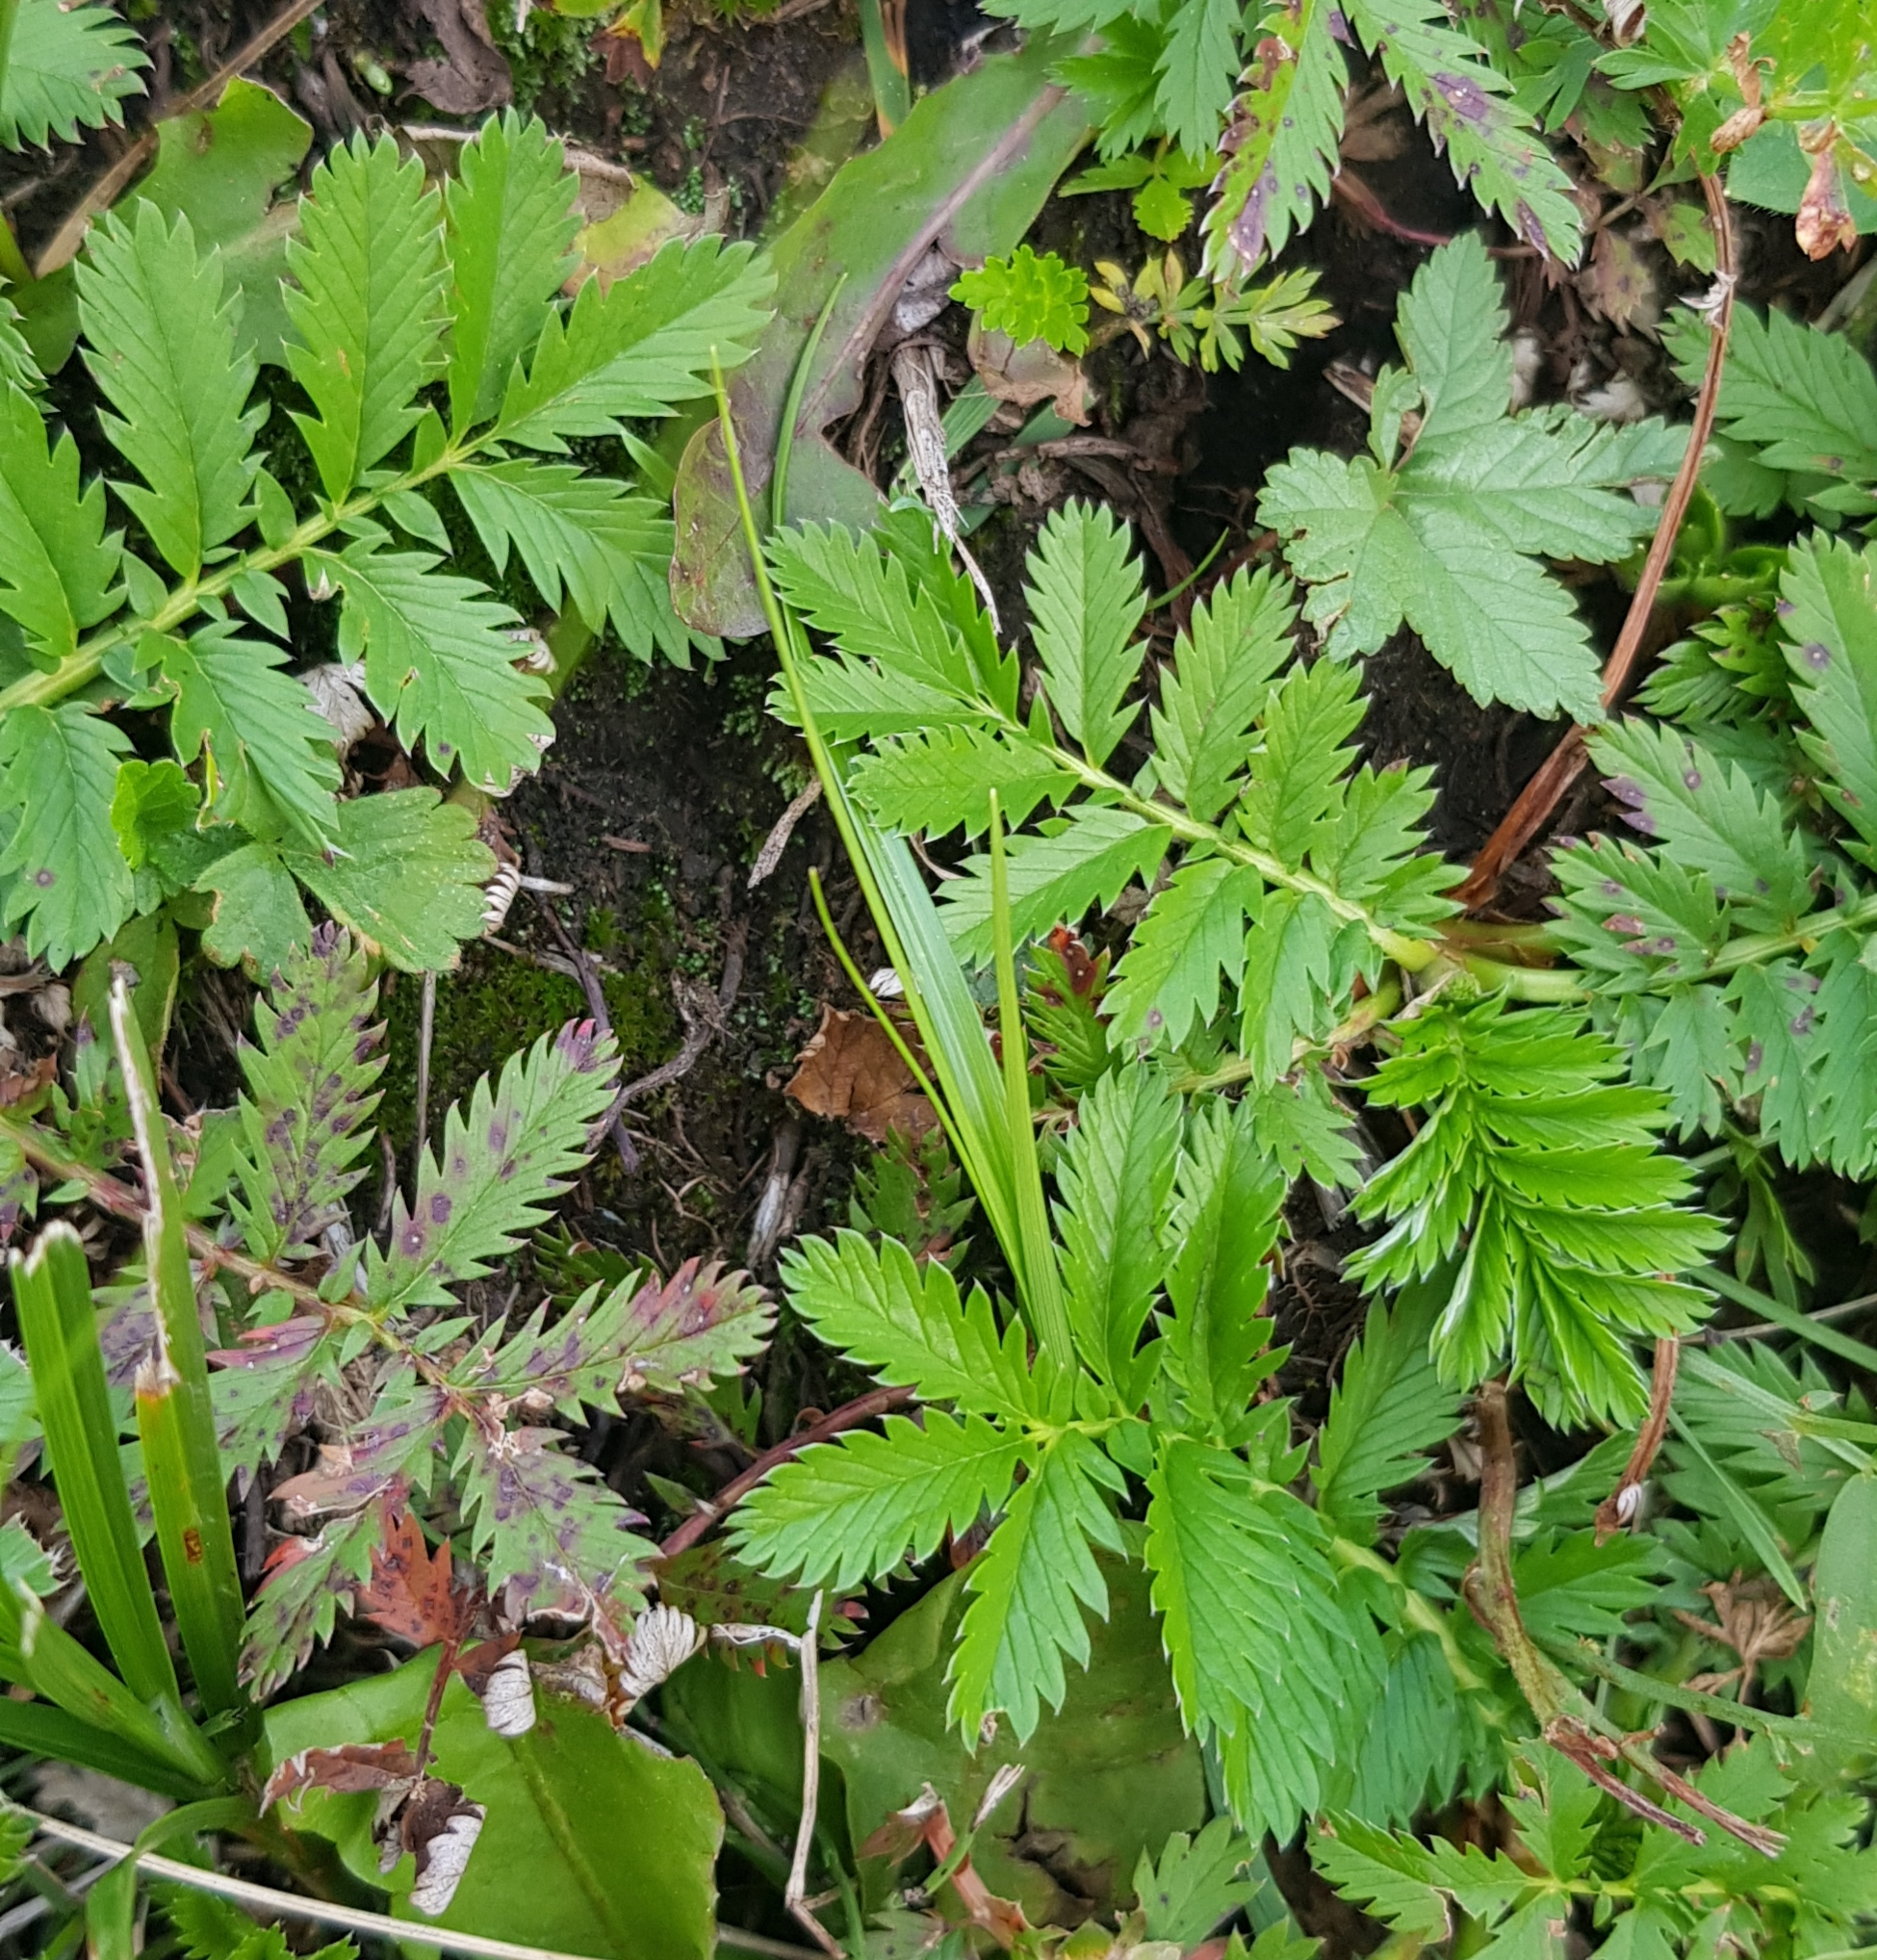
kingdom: Plantae
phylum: Tracheophyta
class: Magnoliopsida
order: Rosales
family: Rosaceae
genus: Argentina
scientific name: Argentina anserina
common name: Common silverweed
